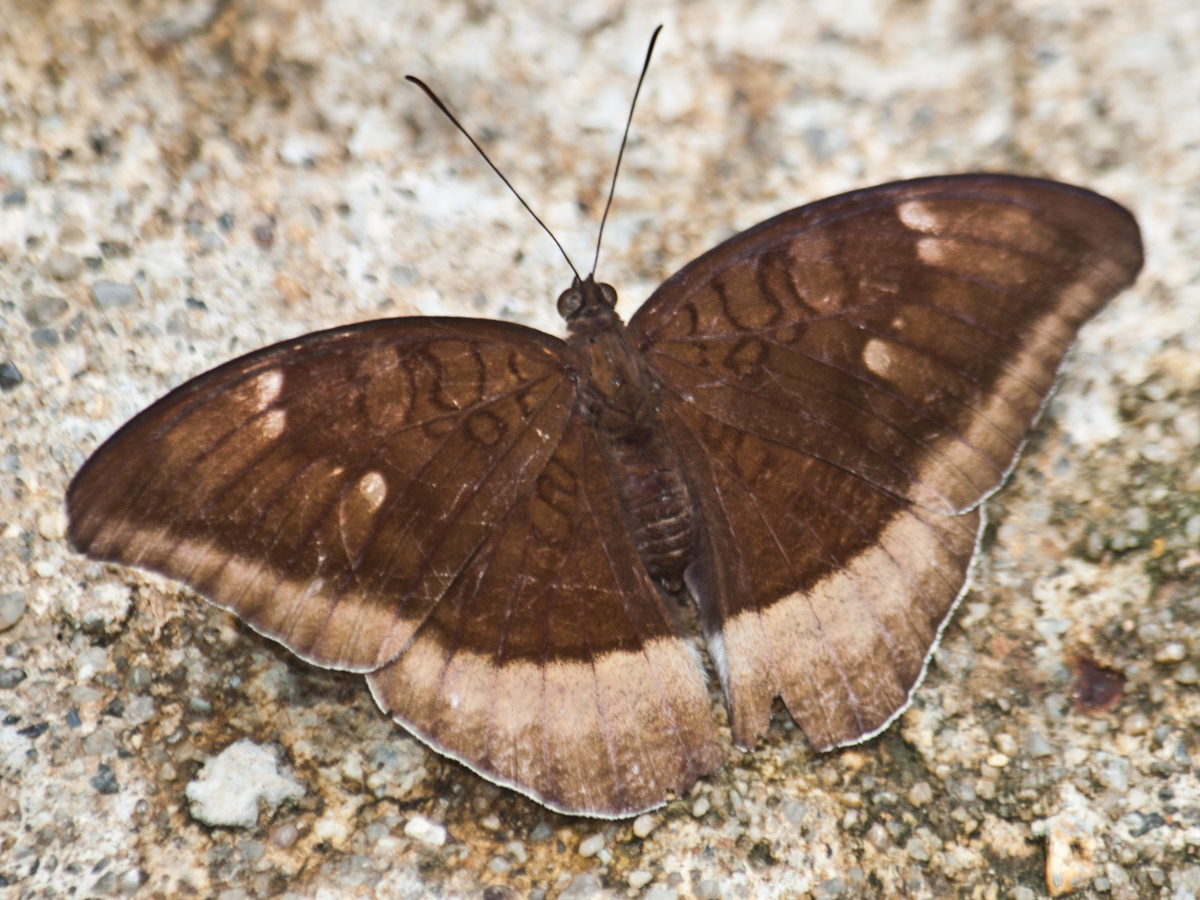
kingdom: Animalia
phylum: Arthropoda
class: Insecta
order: Lepidoptera
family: Nymphalidae
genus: Tanaecia
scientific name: Tanaecia lepidea
